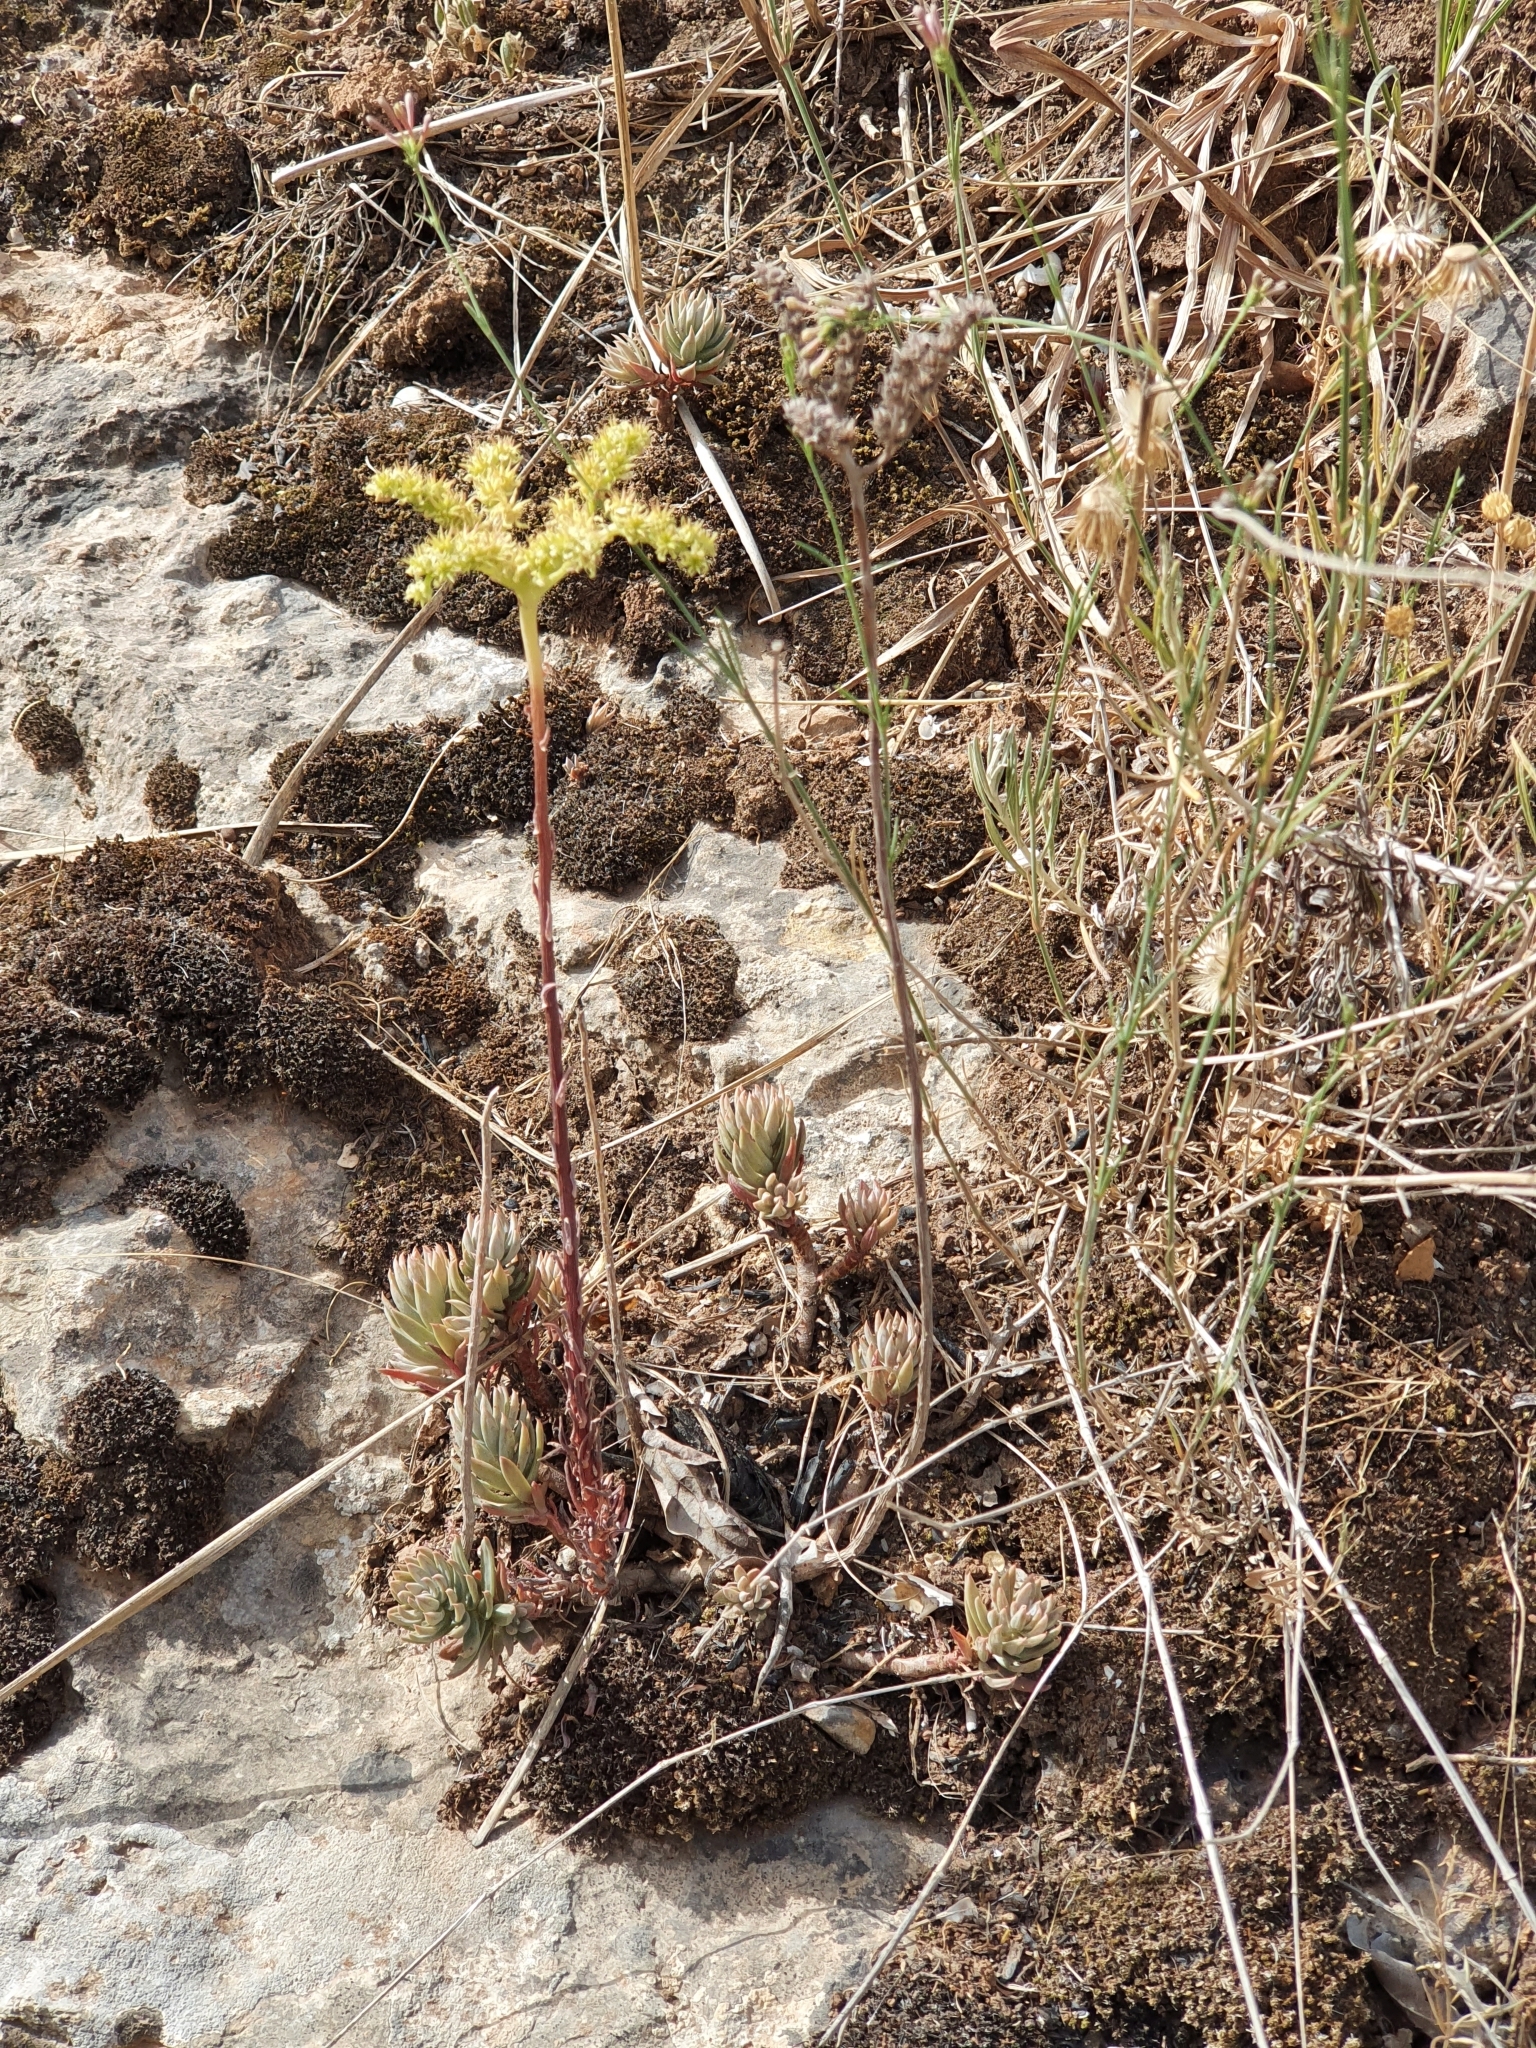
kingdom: Plantae
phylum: Tracheophyta
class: Magnoliopsida
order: Saxifragales
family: Crassulaceae
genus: Petrosedum
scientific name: Petrosedum sediforme
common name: Pale stonecrop
